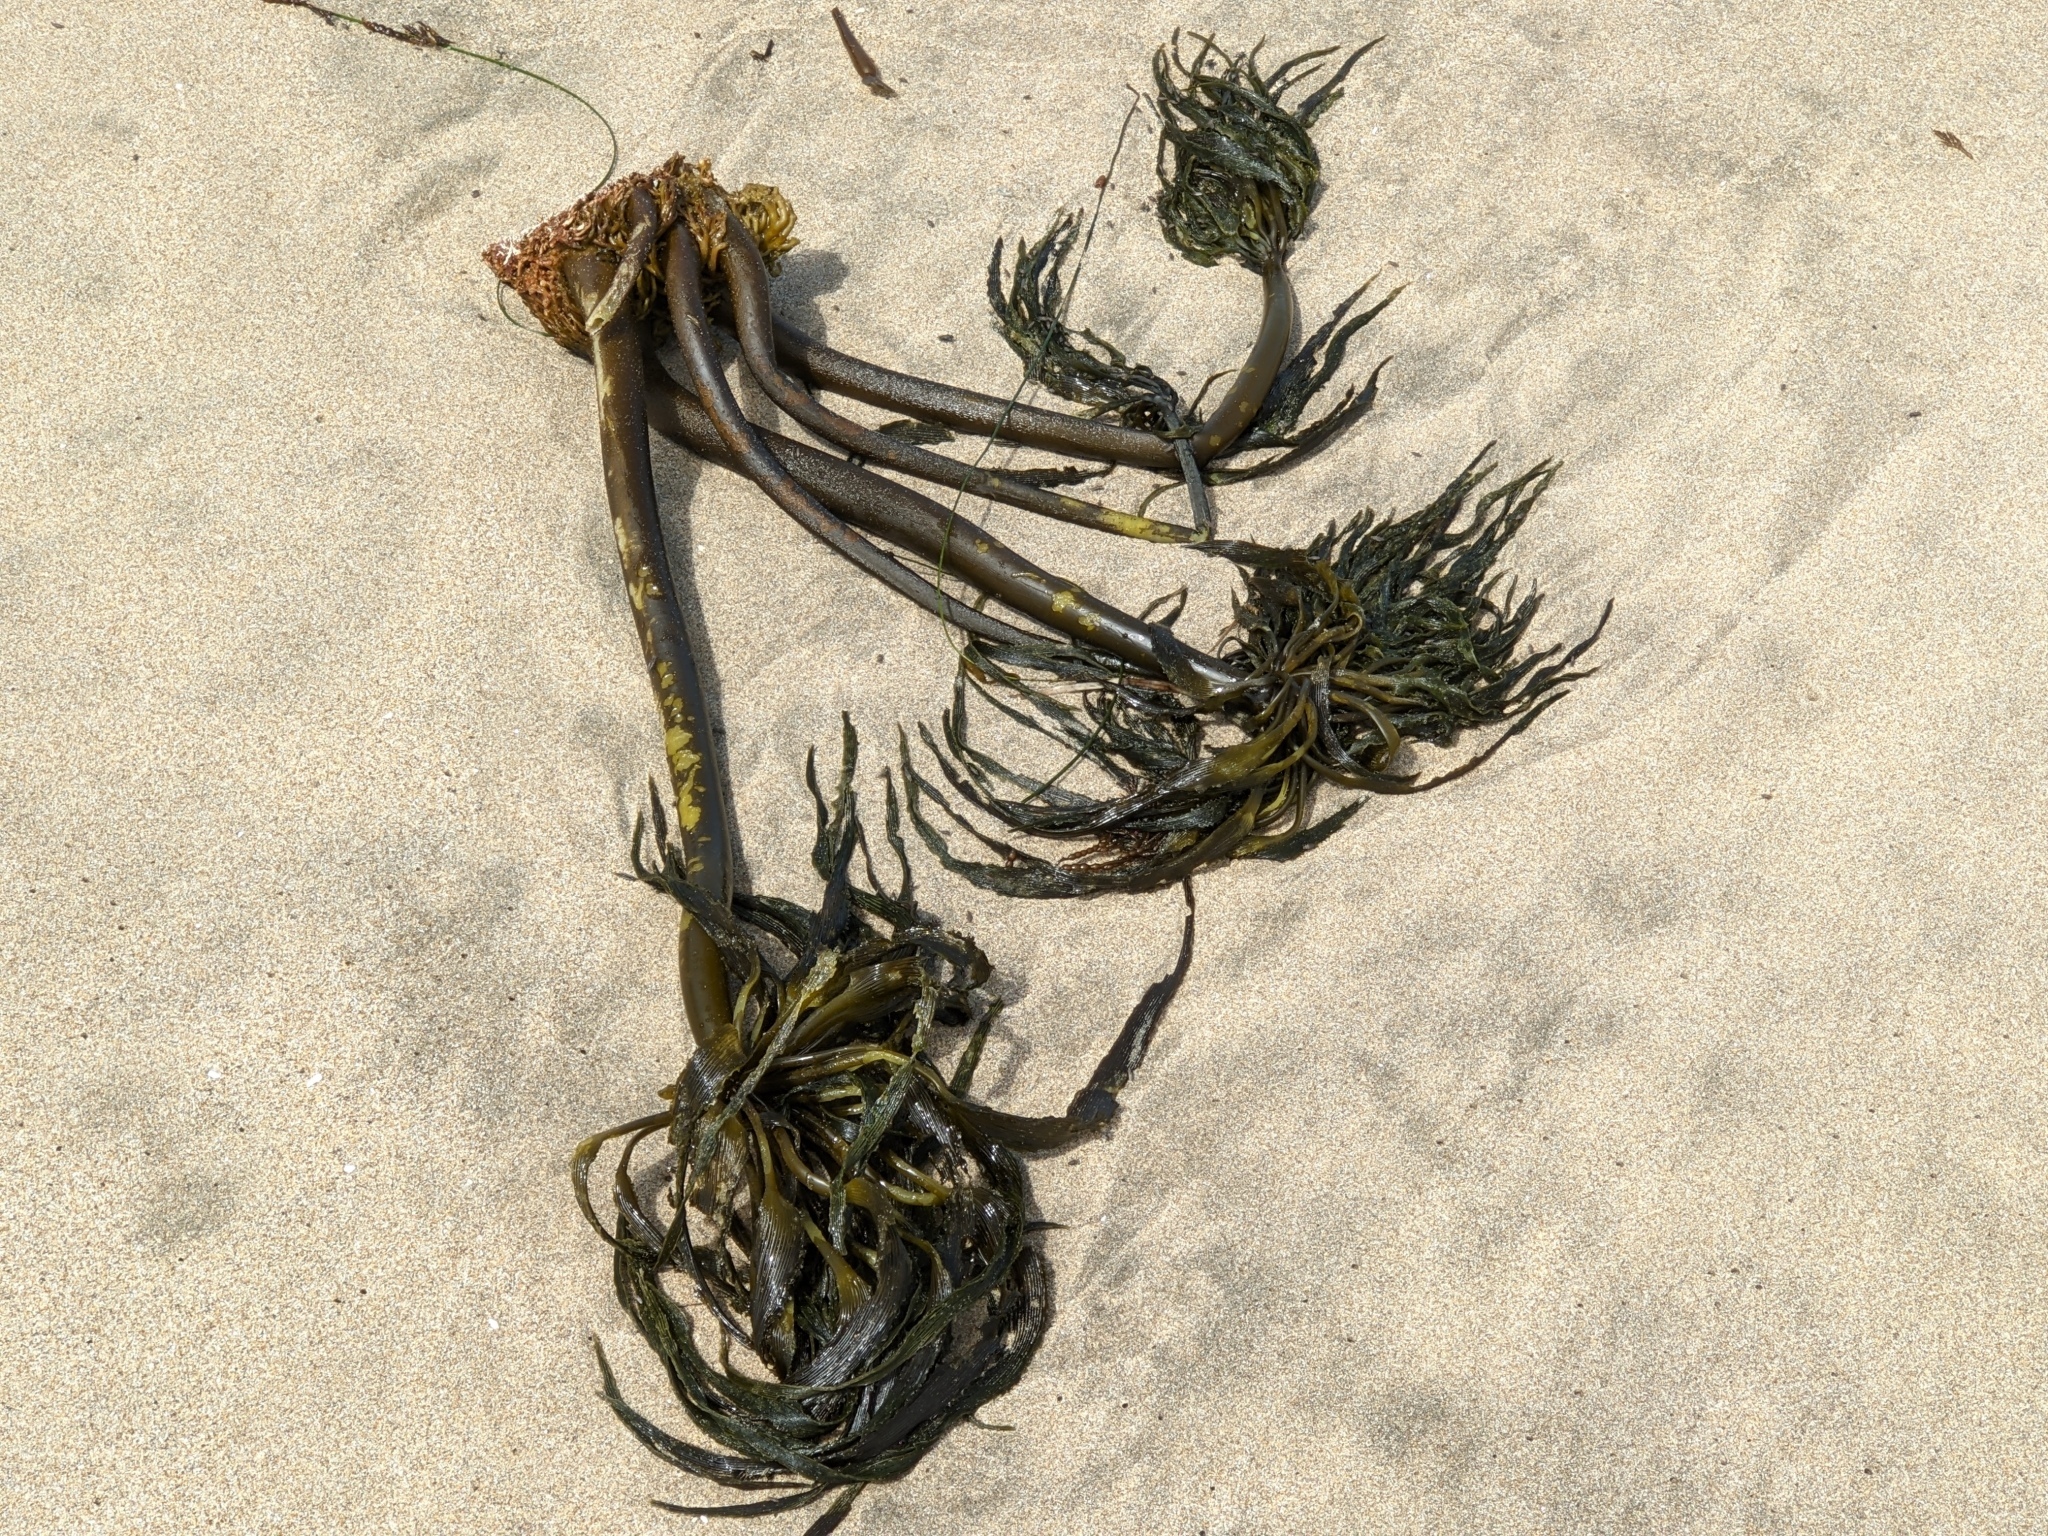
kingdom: Chromista
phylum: Ochrophyta
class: Phaeophyceae
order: Laminariales
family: Laminariaceae
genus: Postelsia
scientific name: Postelsia palmiformis
